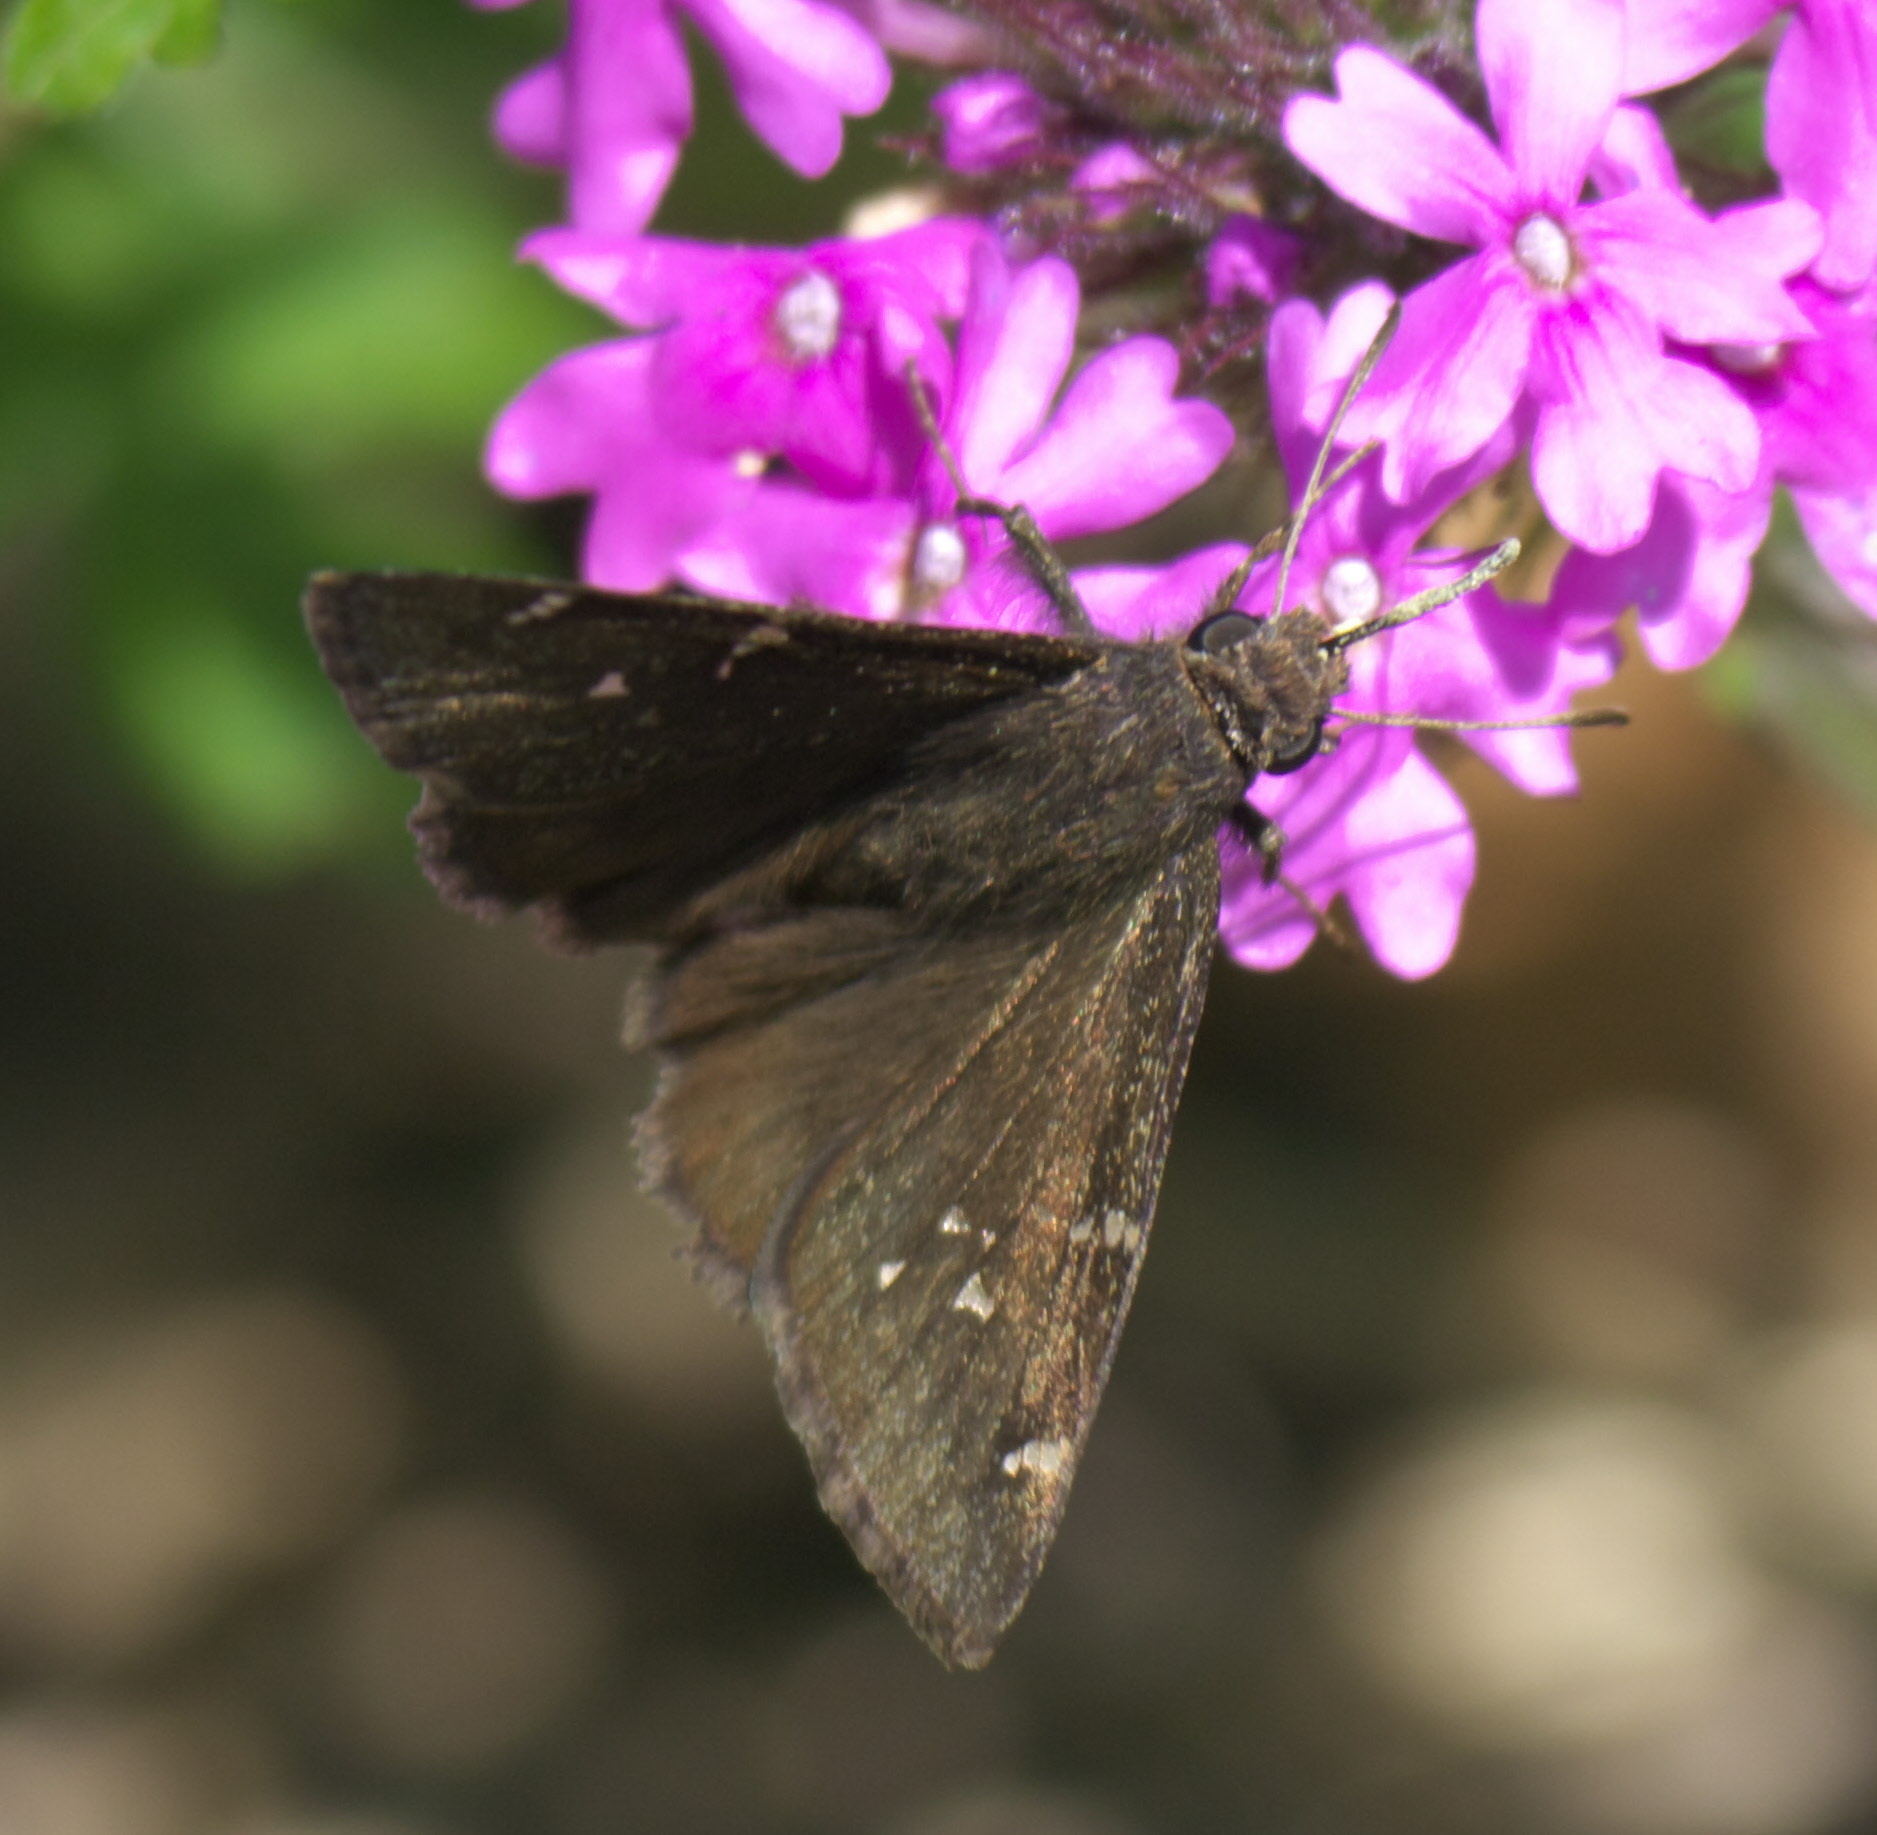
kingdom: Animalia
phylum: Arthropoda
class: Insecta
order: Lepidoptera
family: Hesperiidae
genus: Thorybes
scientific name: Thorybes pylades
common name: Northern cloudywing
